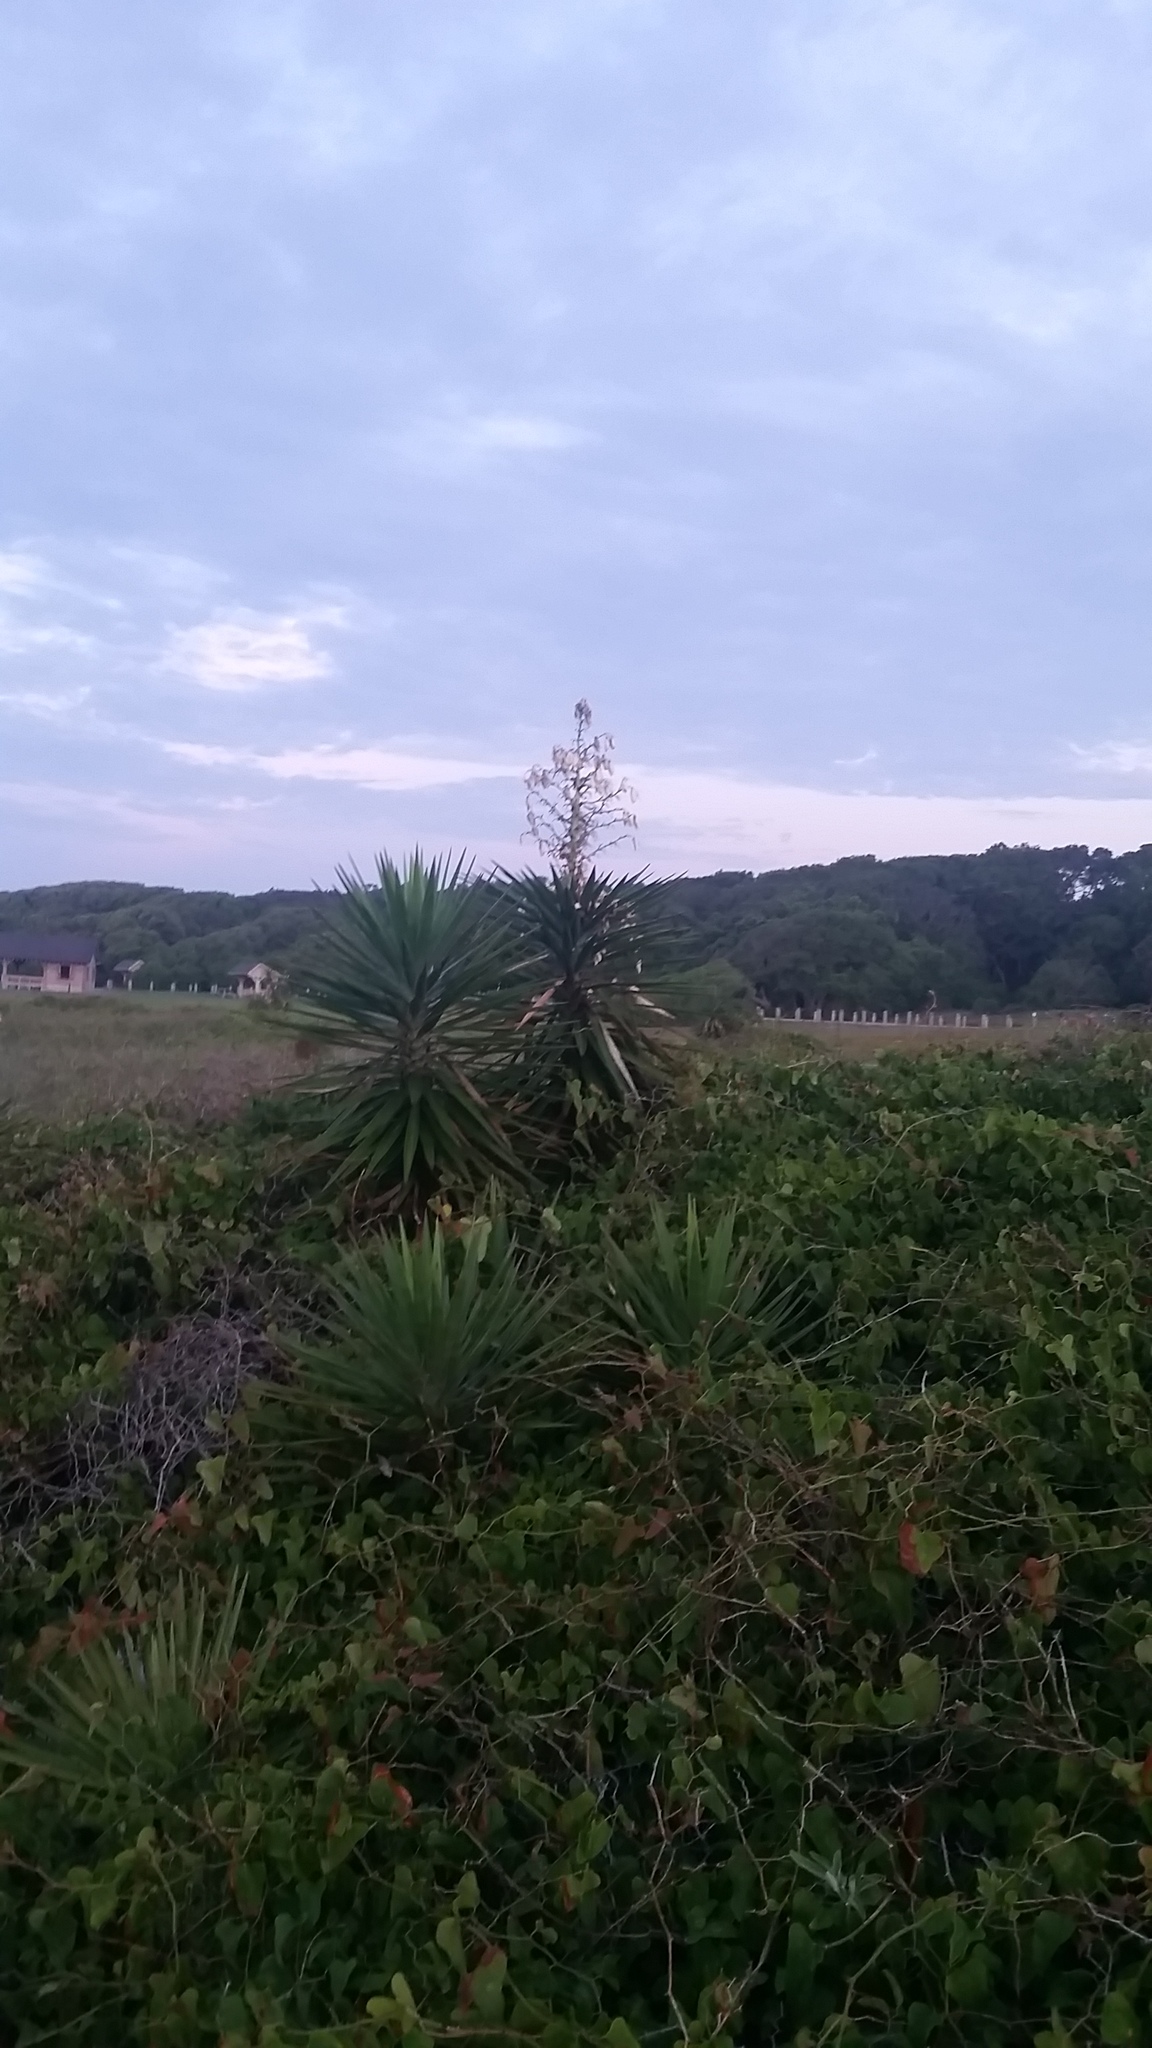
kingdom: Plantae
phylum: Tracheophyta
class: Liliopsida
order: Asparagales
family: Asparagaceae
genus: Yucca
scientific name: Yucca aloifolia
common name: Aloe yucca
